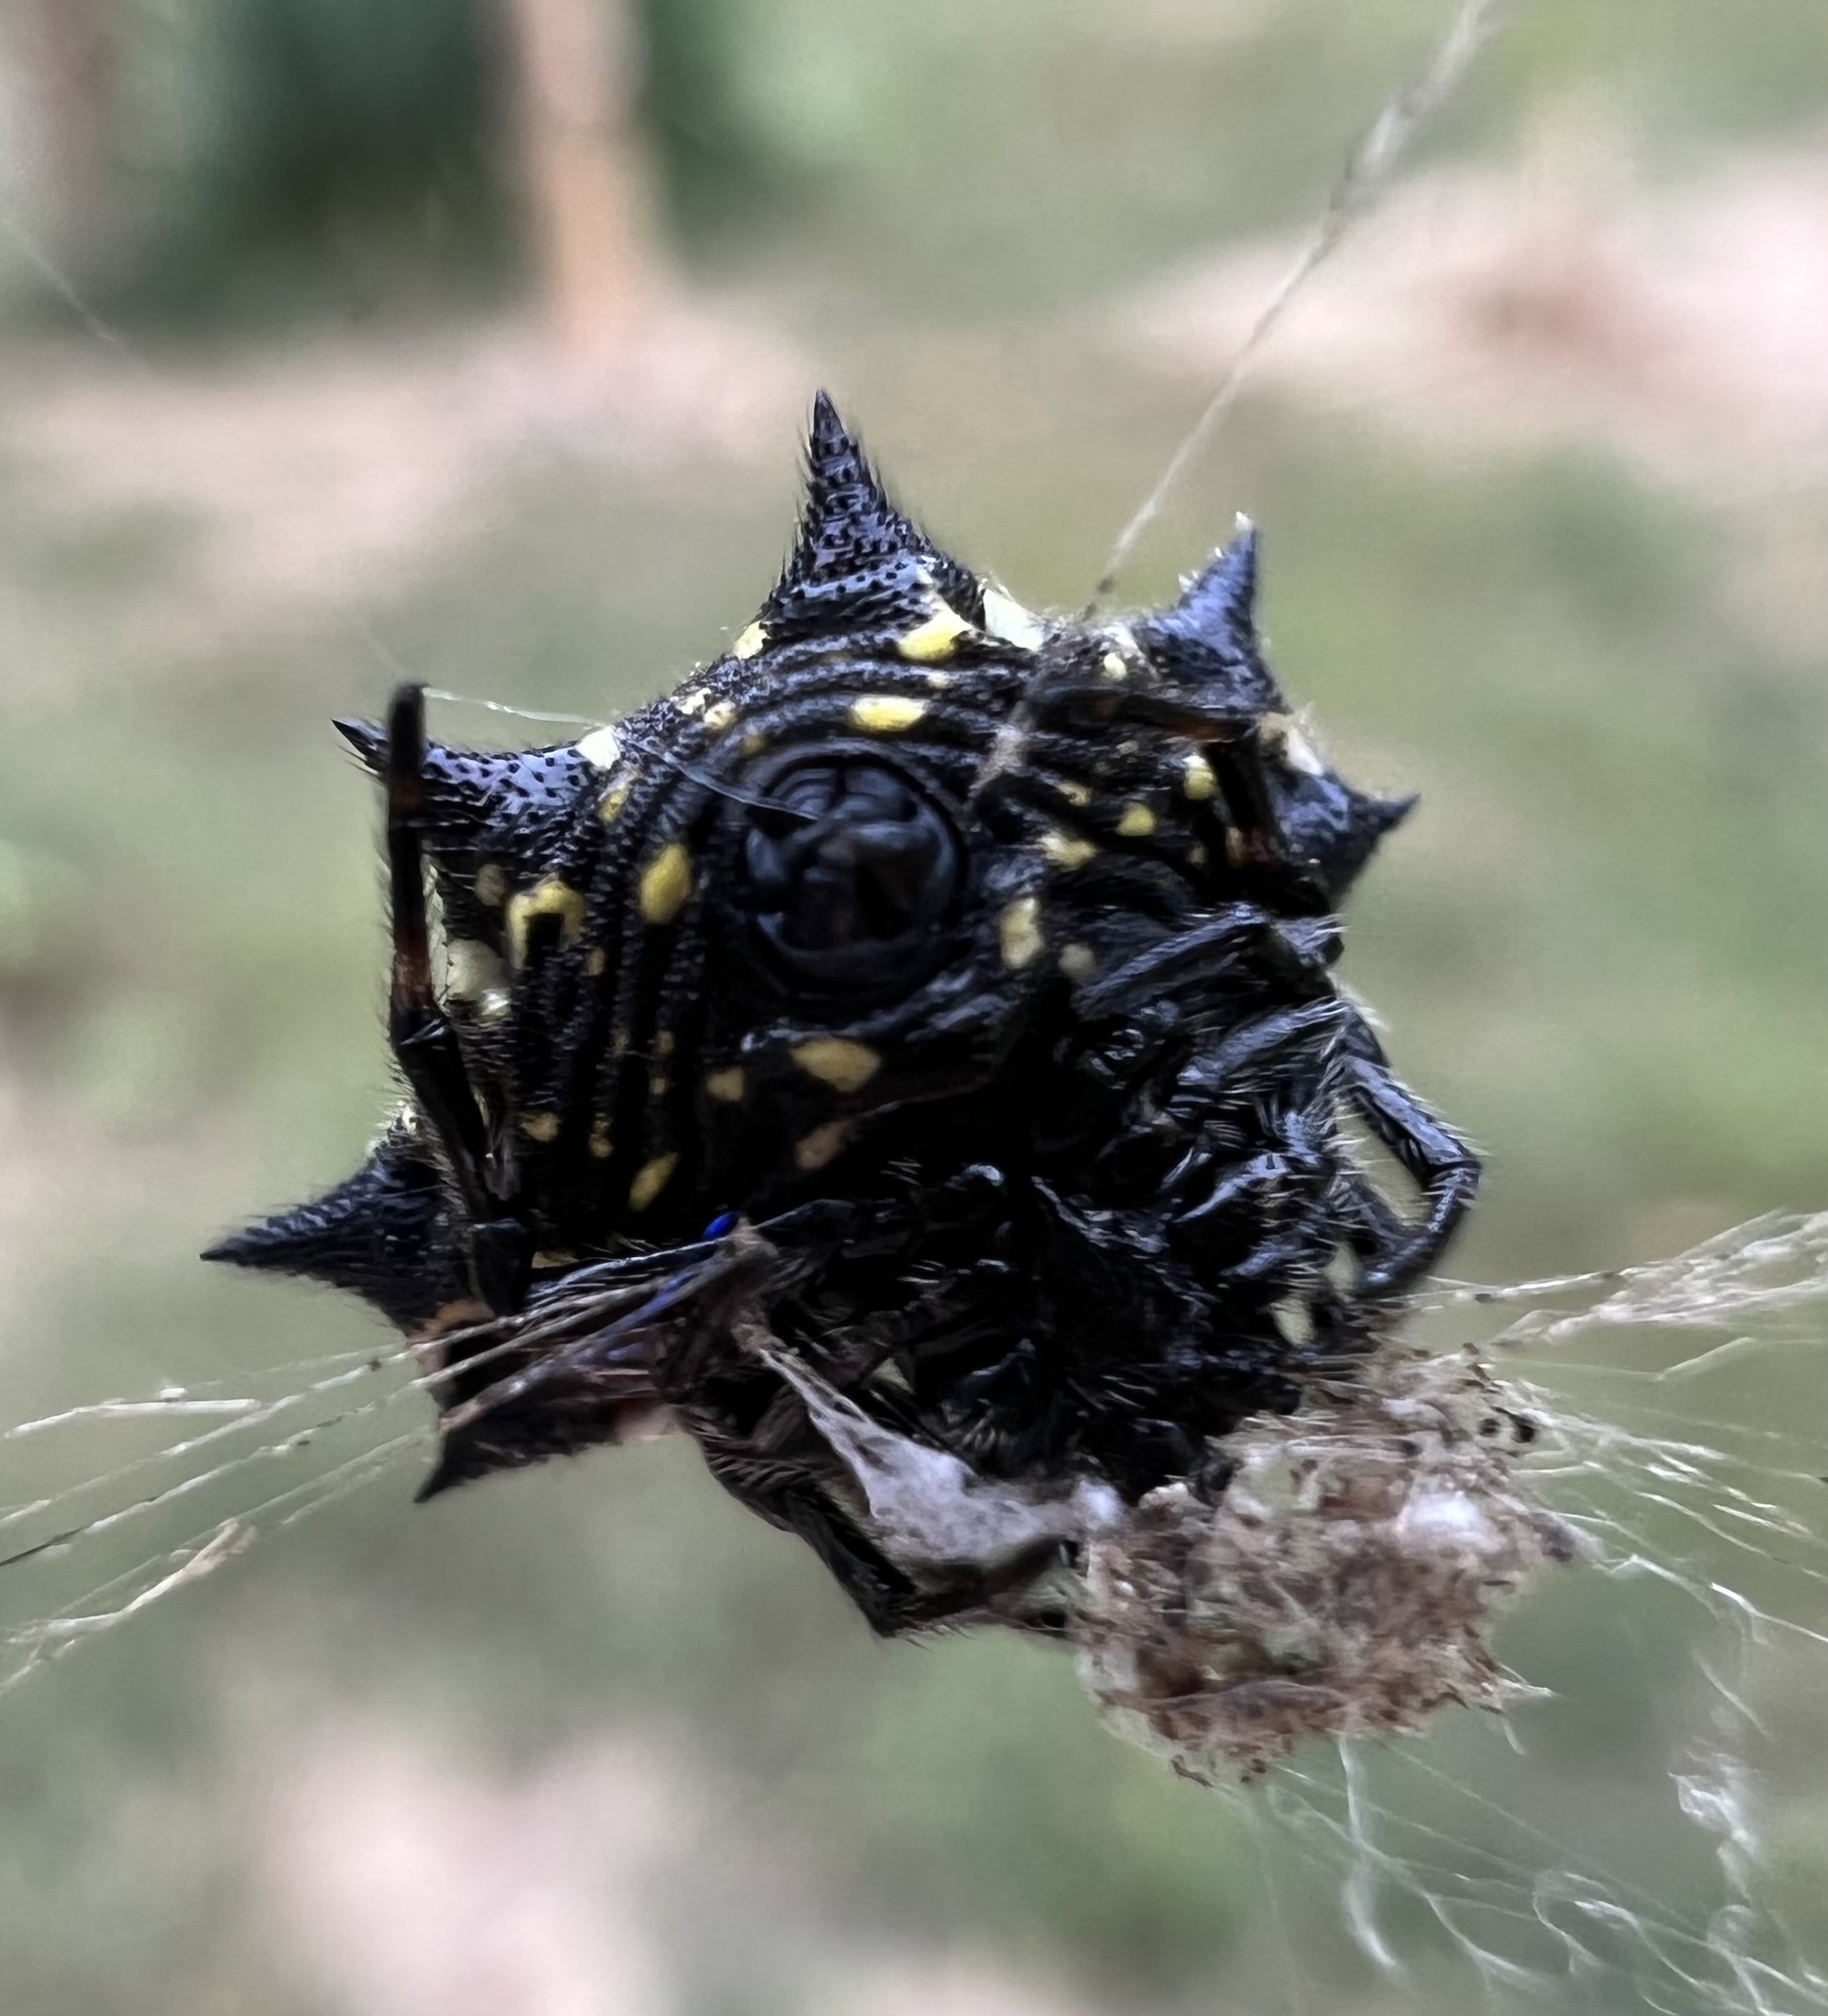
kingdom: Animalia
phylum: Arthropoda
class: Arachnida
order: Araneae
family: Araneidae
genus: Gasteracantha
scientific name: Gasteracantha cancriformis
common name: Orb weavers
